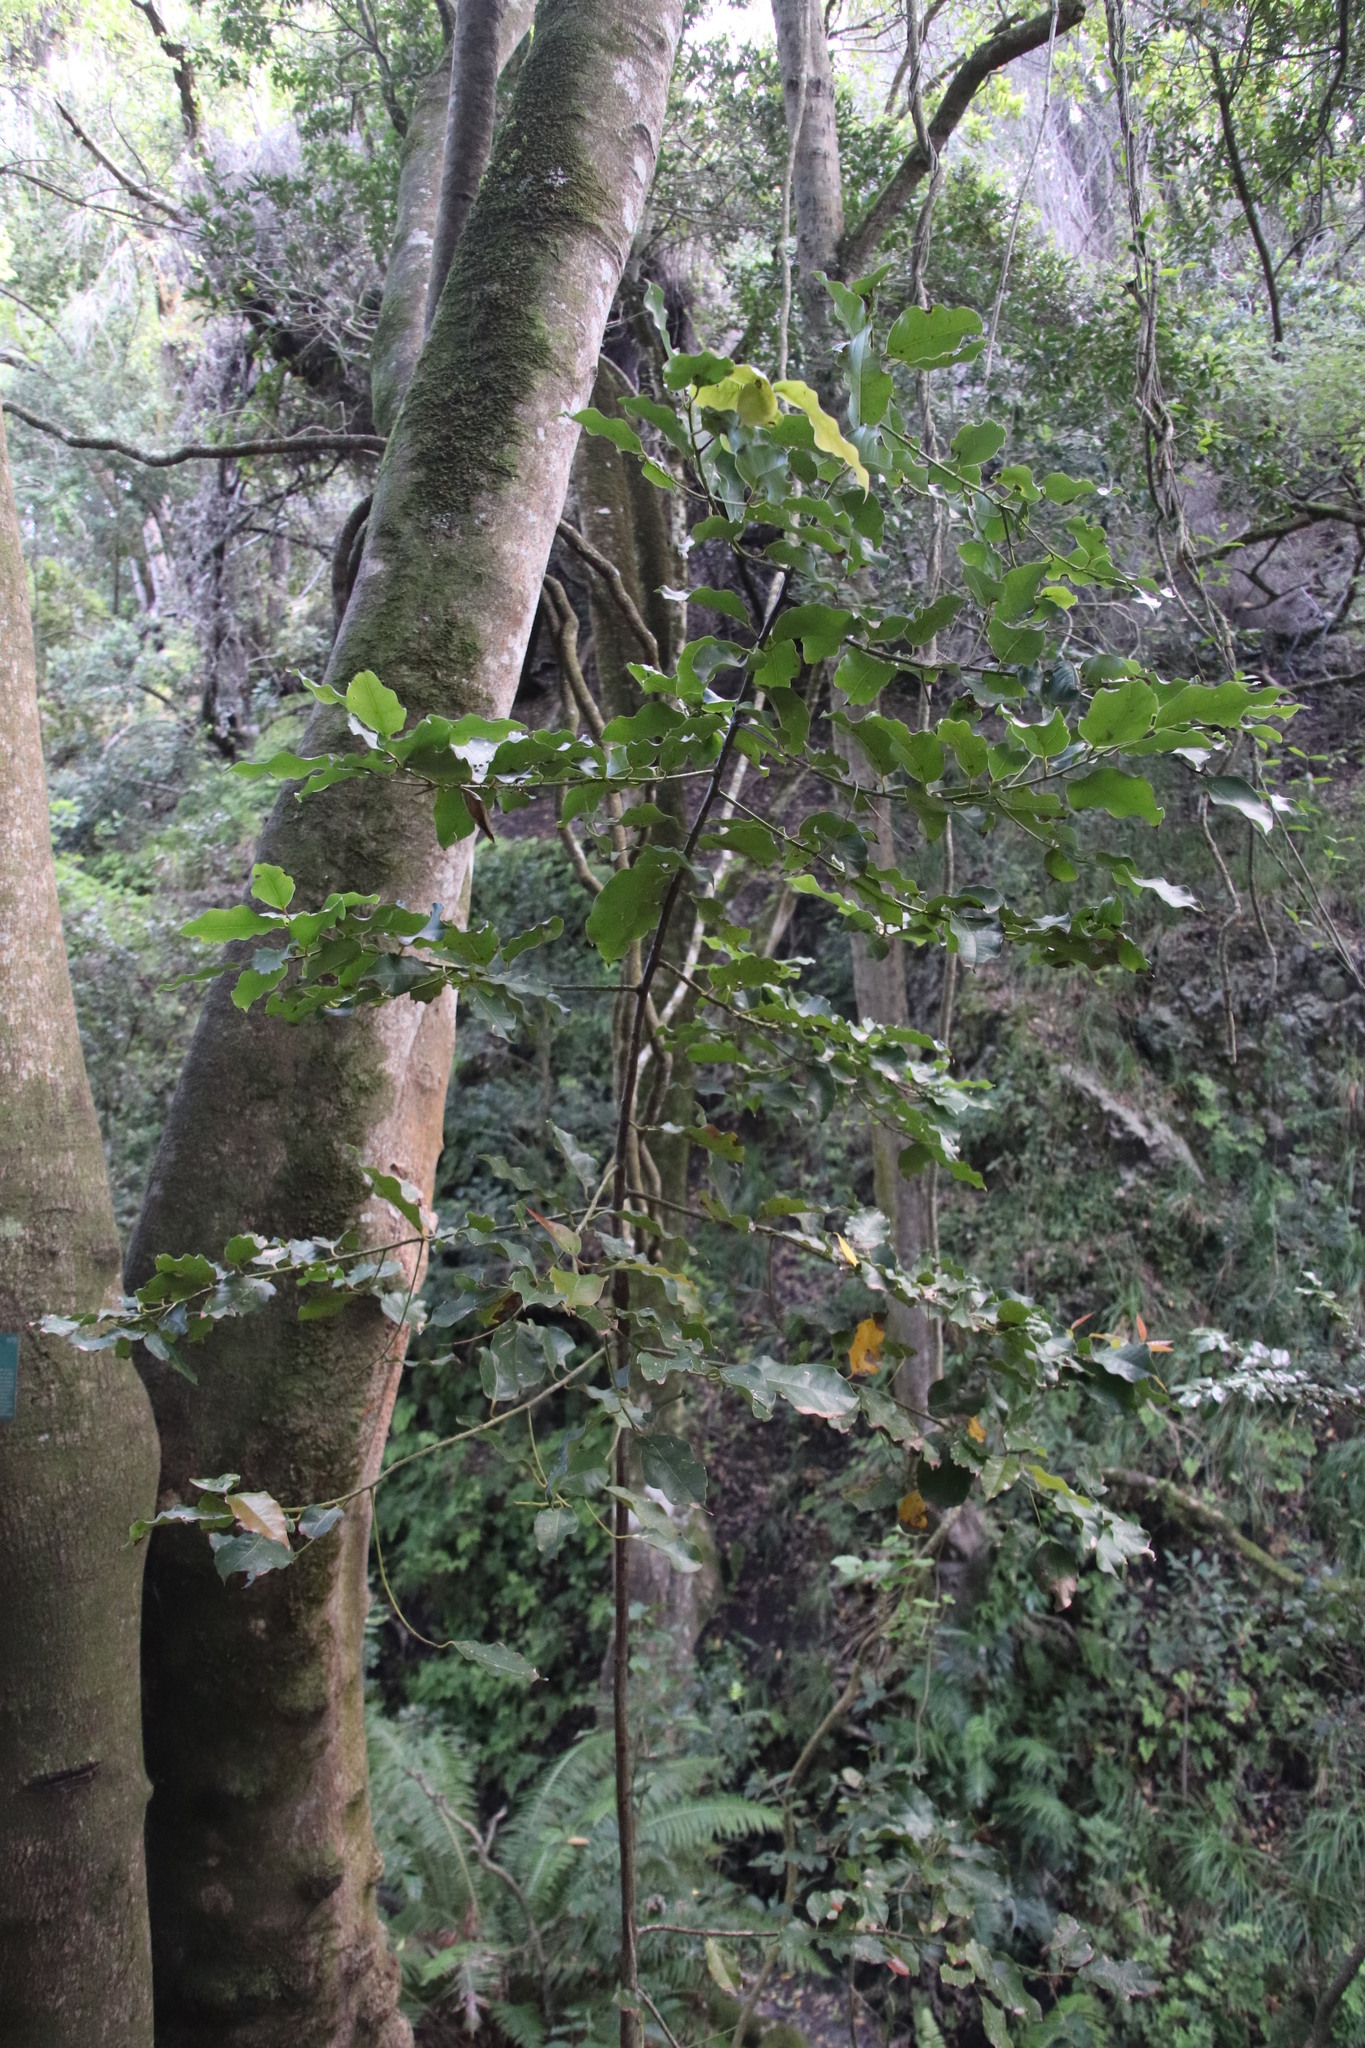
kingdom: Plantae
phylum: Tracheophyta
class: Magnoliopsida
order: Laurales
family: Lauraceae
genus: Ocotea
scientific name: Ocotea bullata
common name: Black stinkwood
